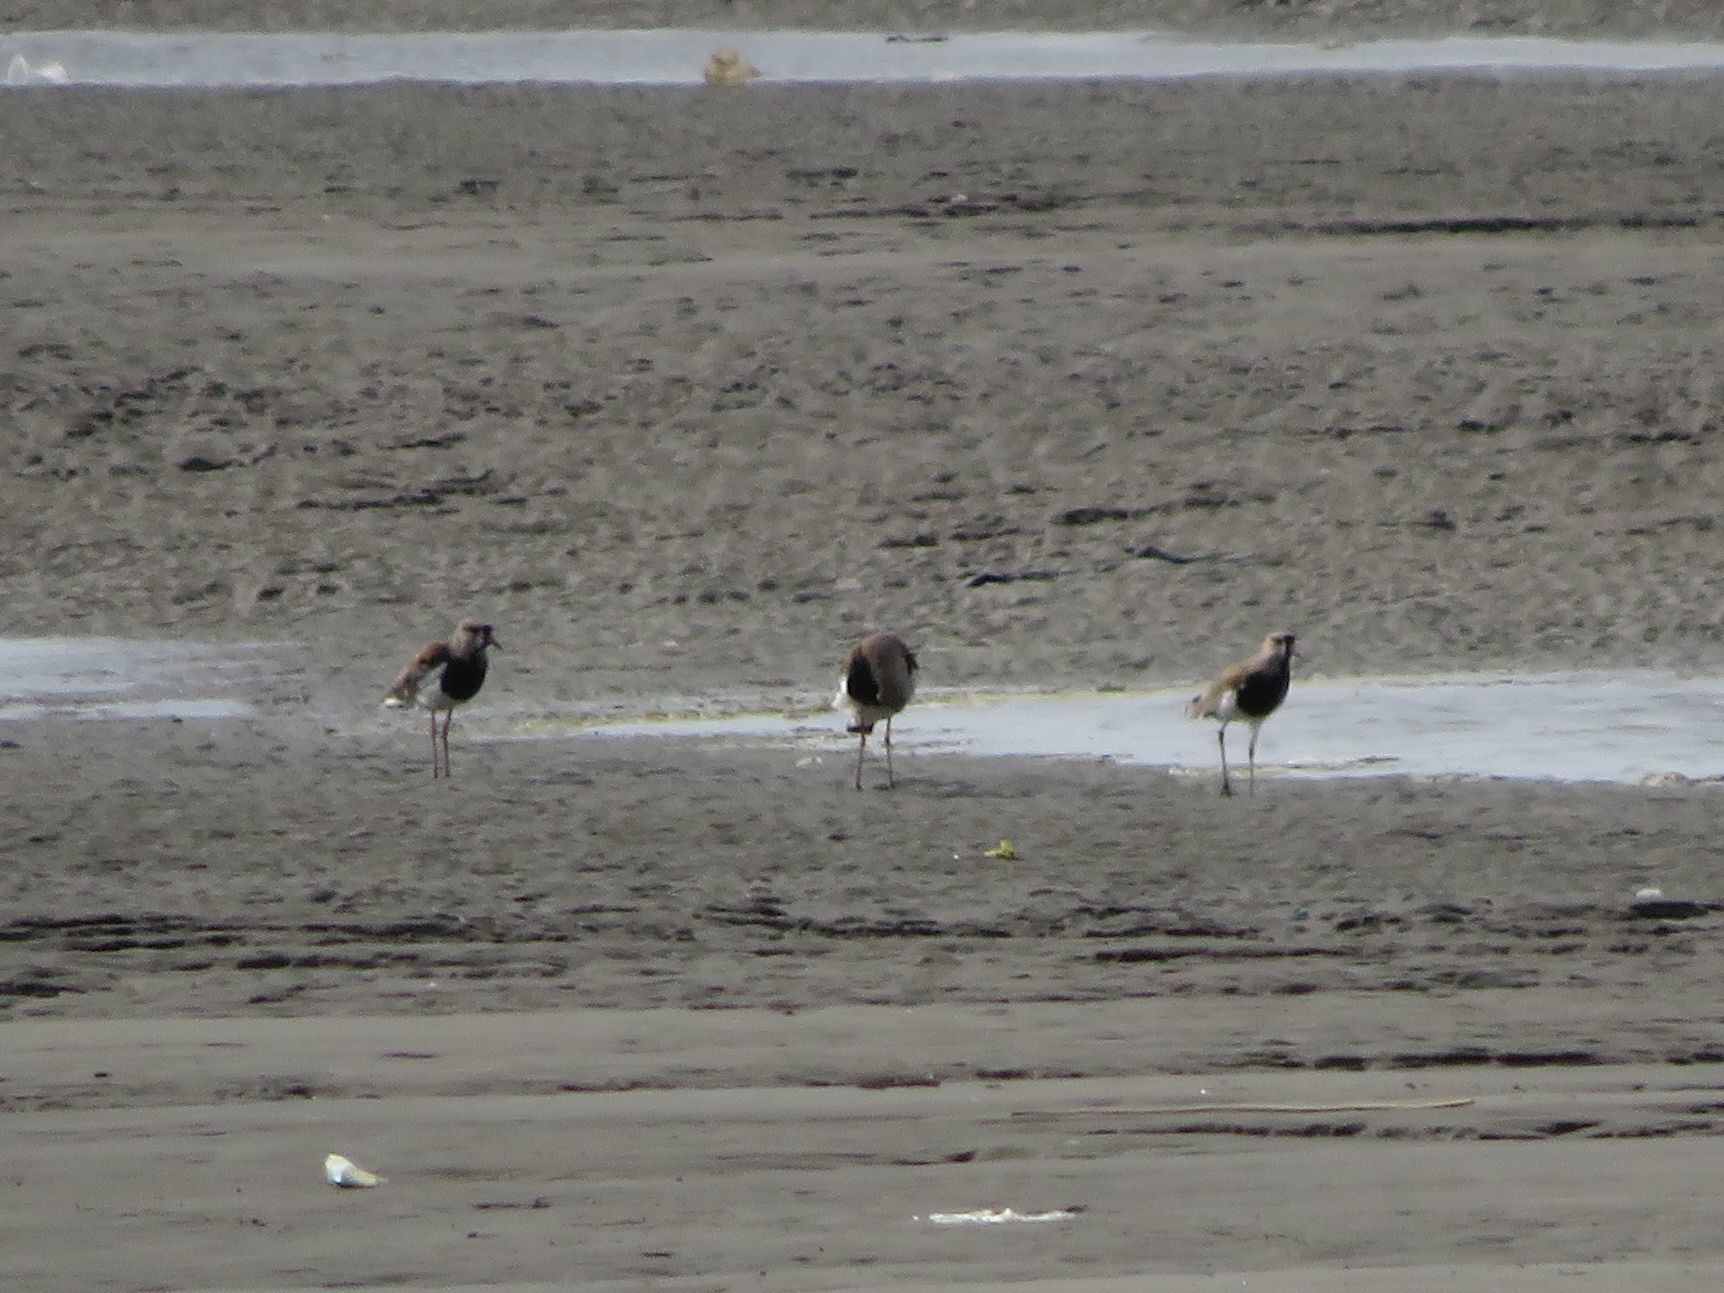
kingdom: Animalia
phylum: Chordata
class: Aves
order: Charadriiformes
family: Charadriidae
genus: Vanellus
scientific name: Vanellus chilensis
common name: Southern lapwing
